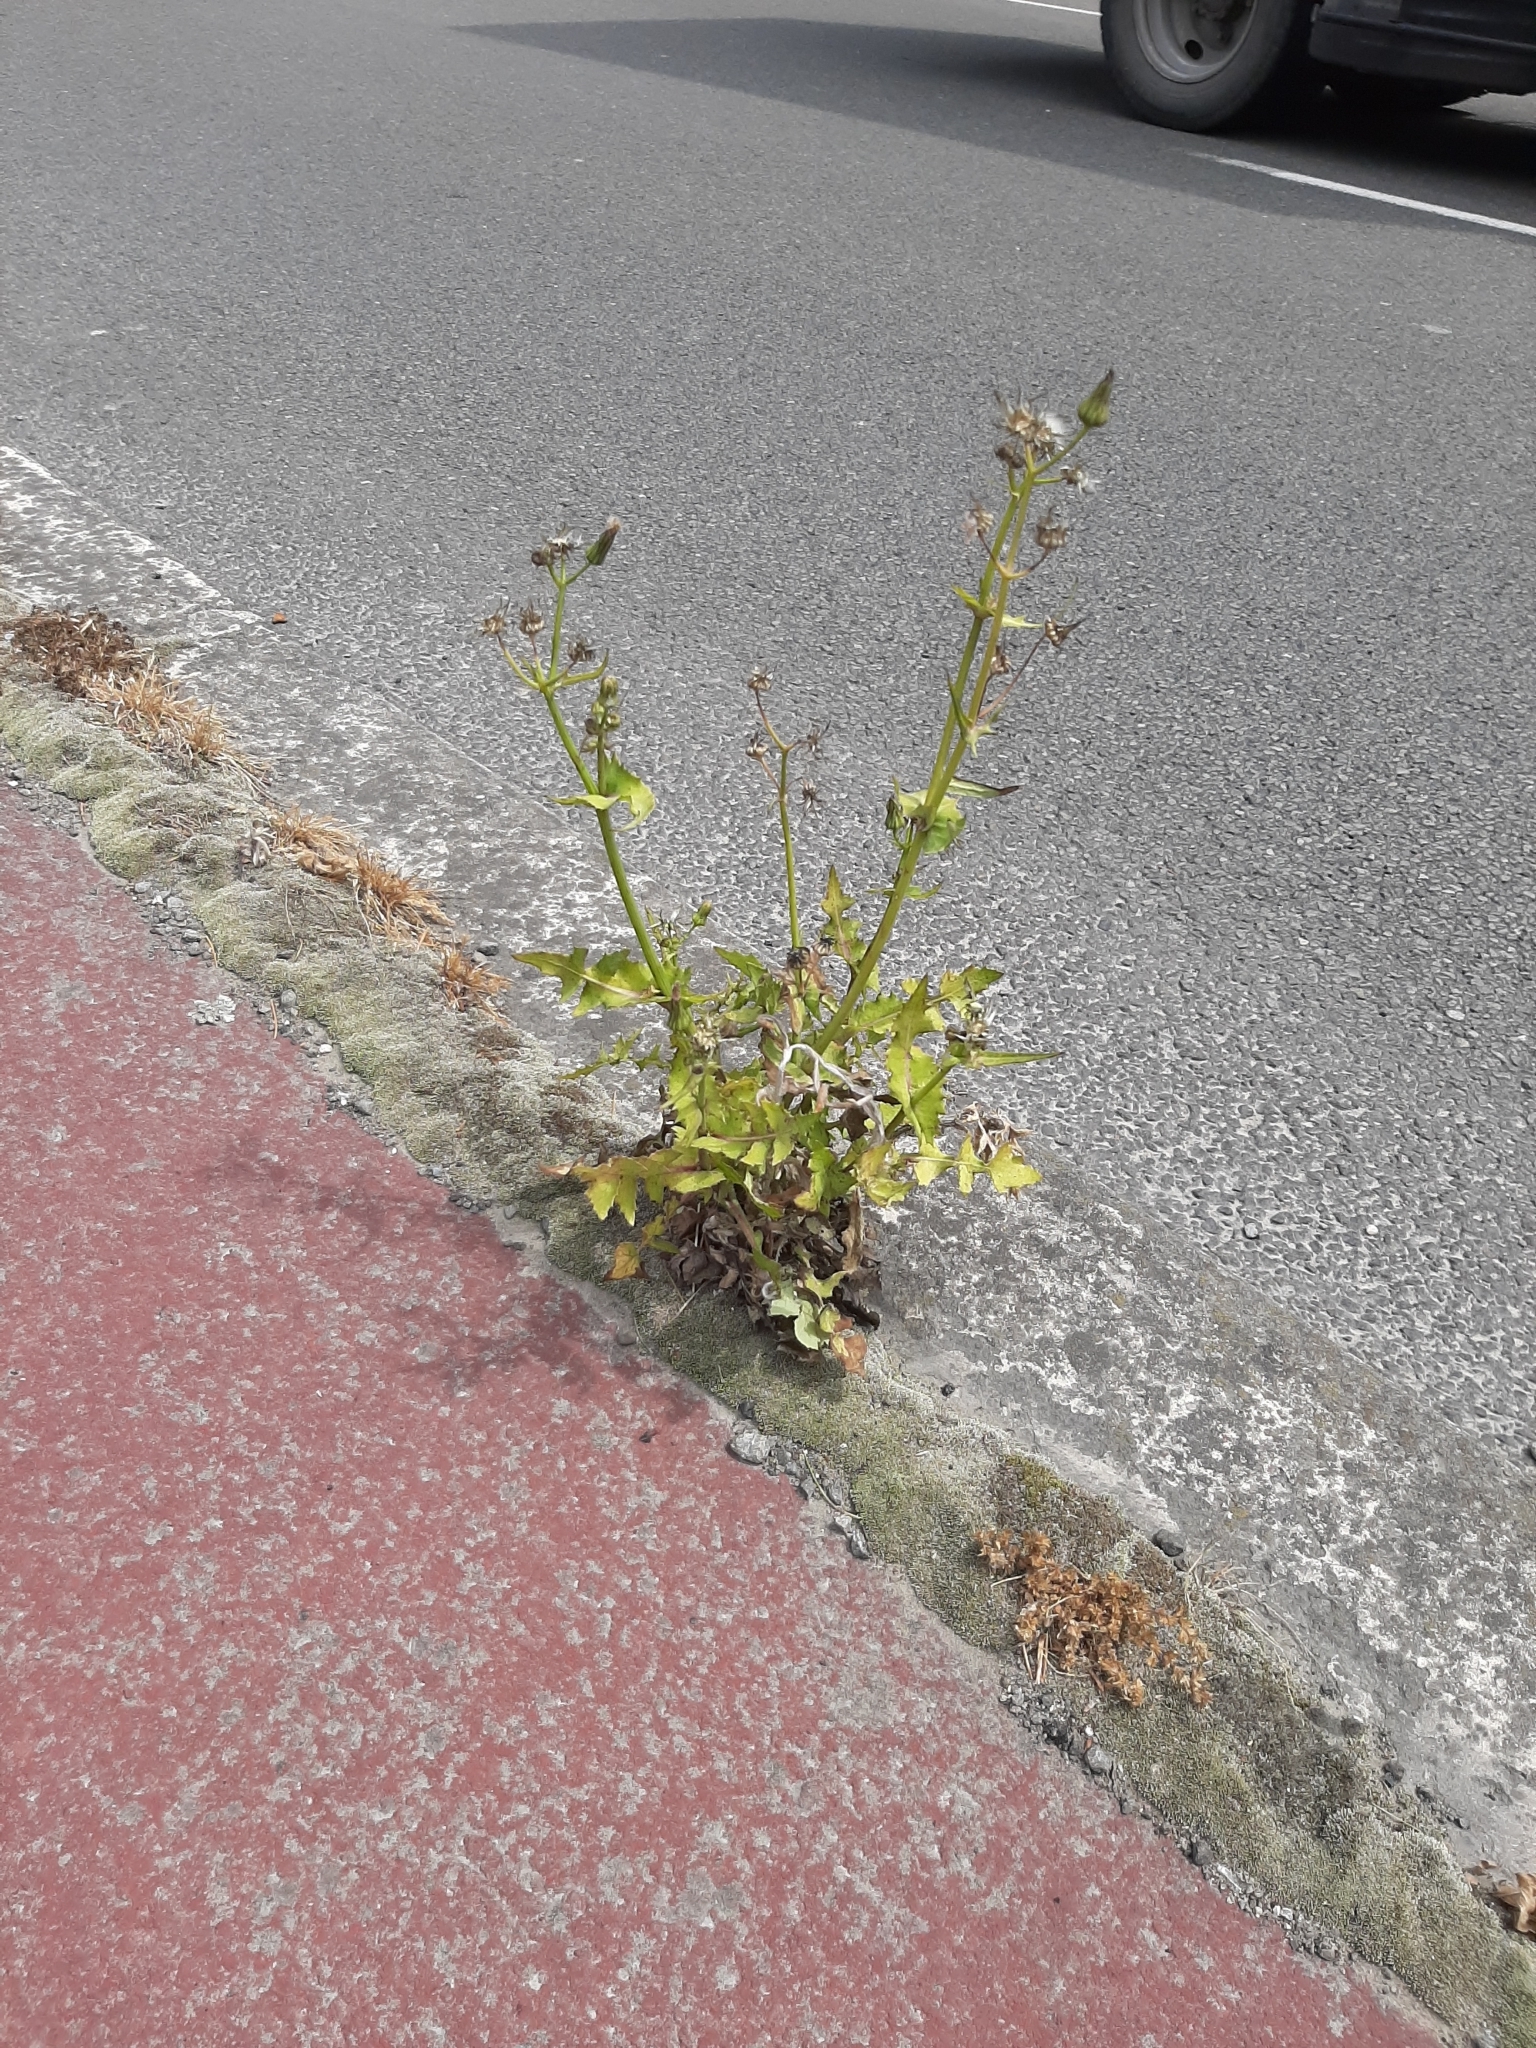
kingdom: Plantae
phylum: Tracheophyta
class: Magnoliopsida
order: Asterales
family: Asteraceae
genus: Sonchus
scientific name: Sonchus asper
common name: Prickly sow-thistle
